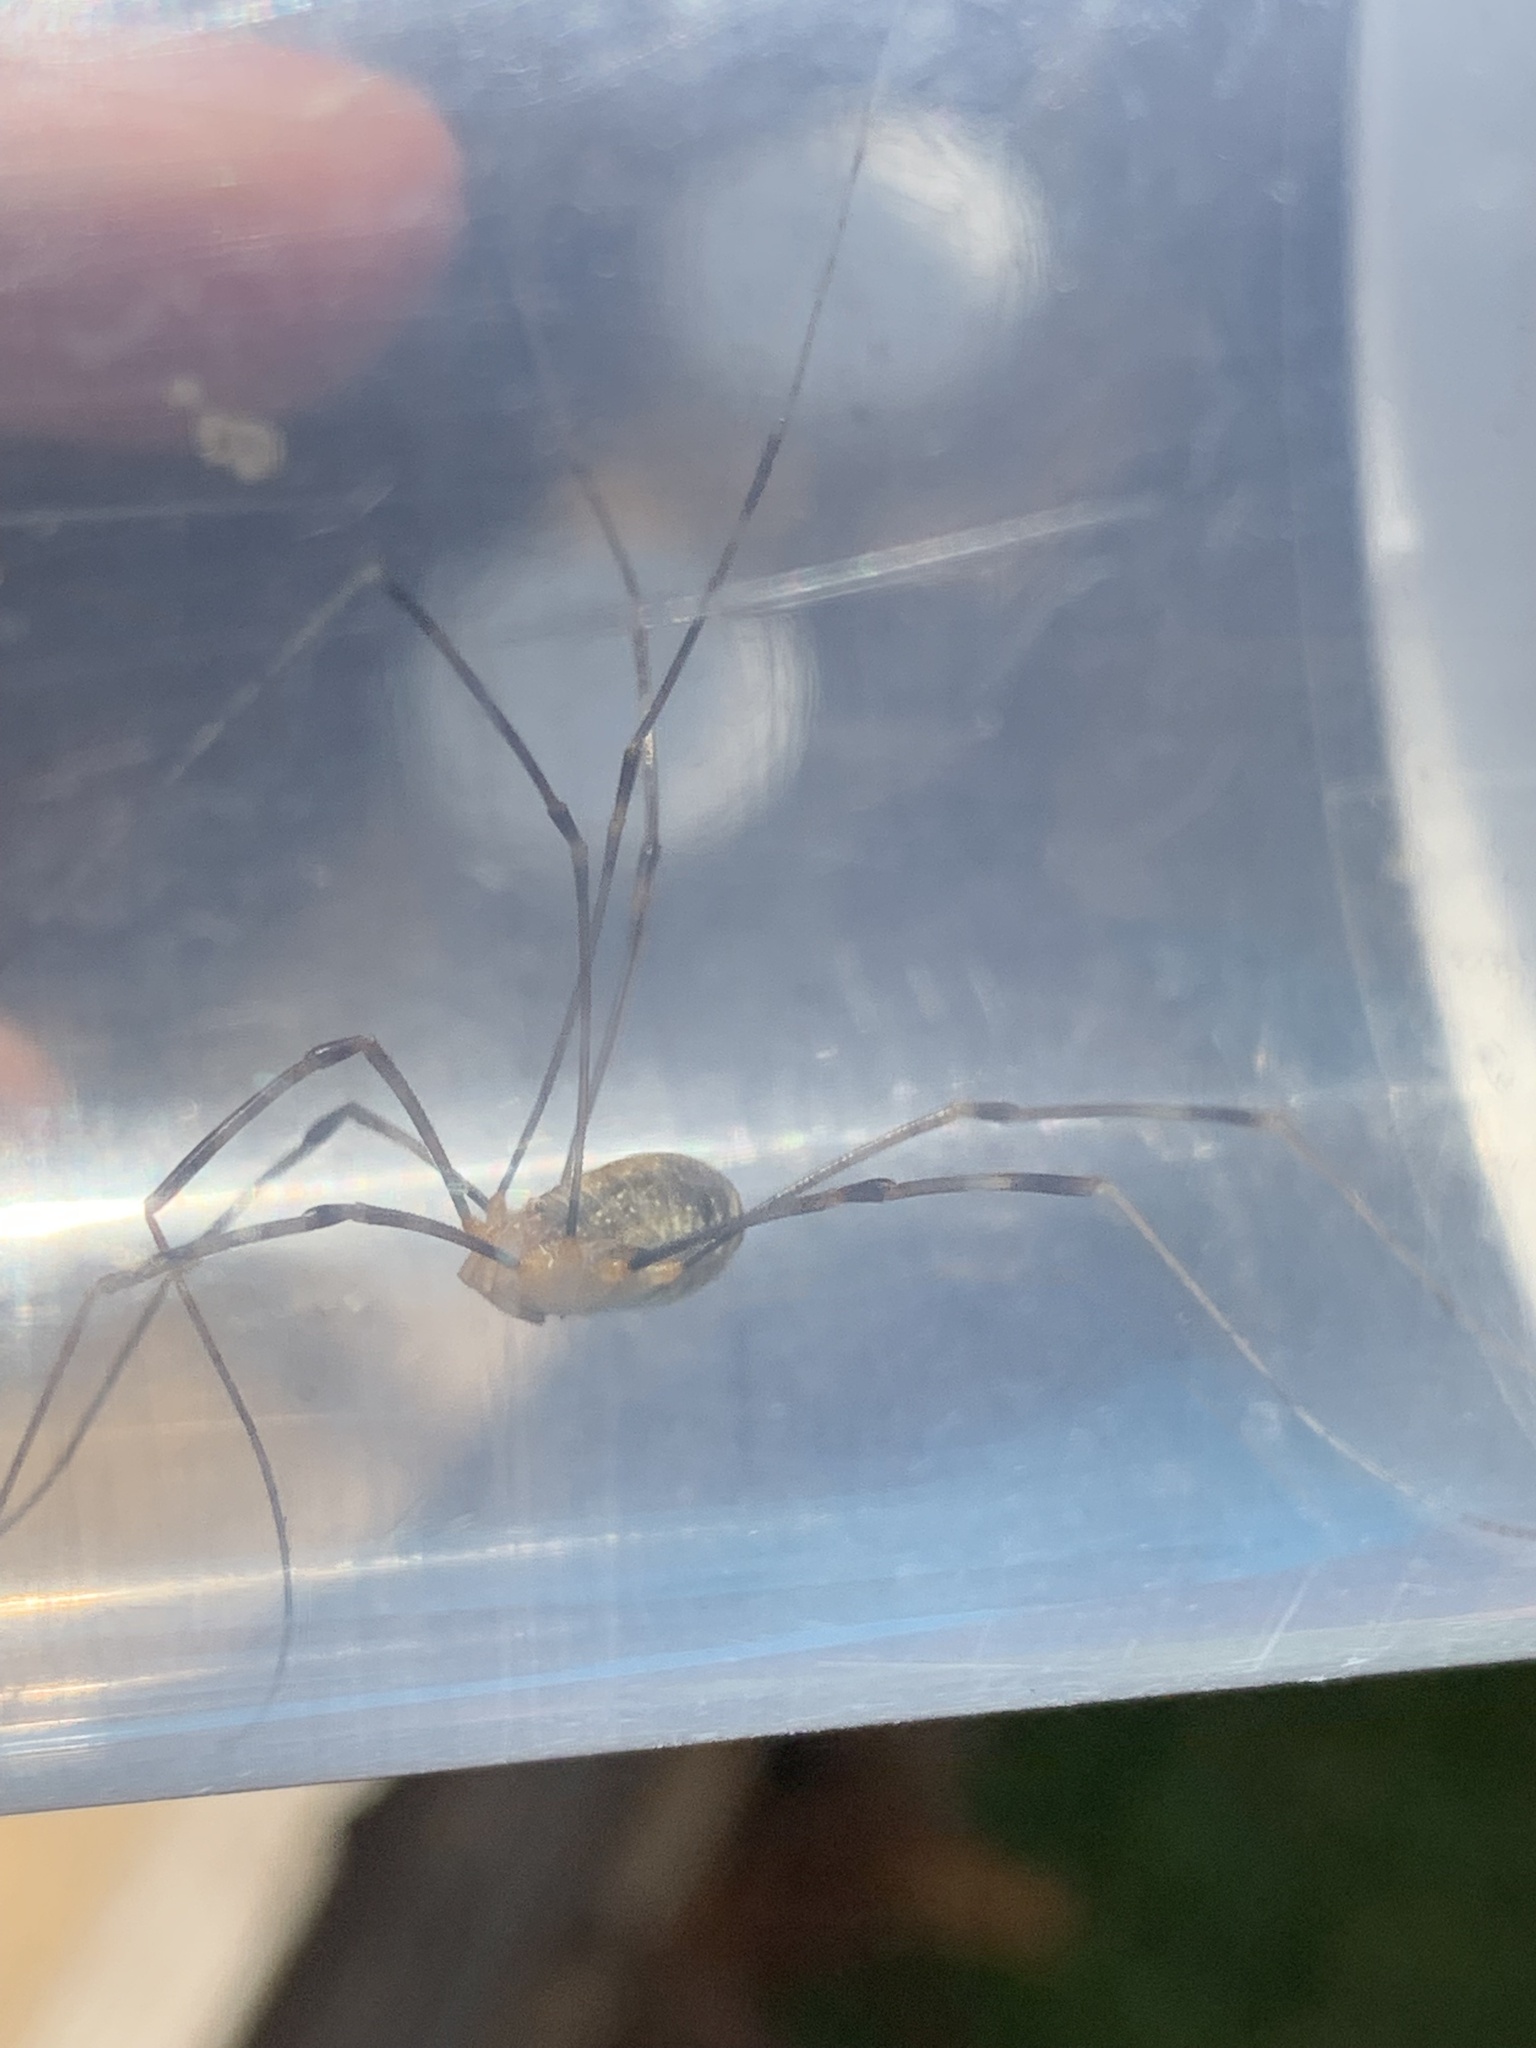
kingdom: Animalia
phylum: Arthropoda
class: Arachnida
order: Opiliones
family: Phalangiidae
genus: Opilio
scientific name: Opilio canestrinii
